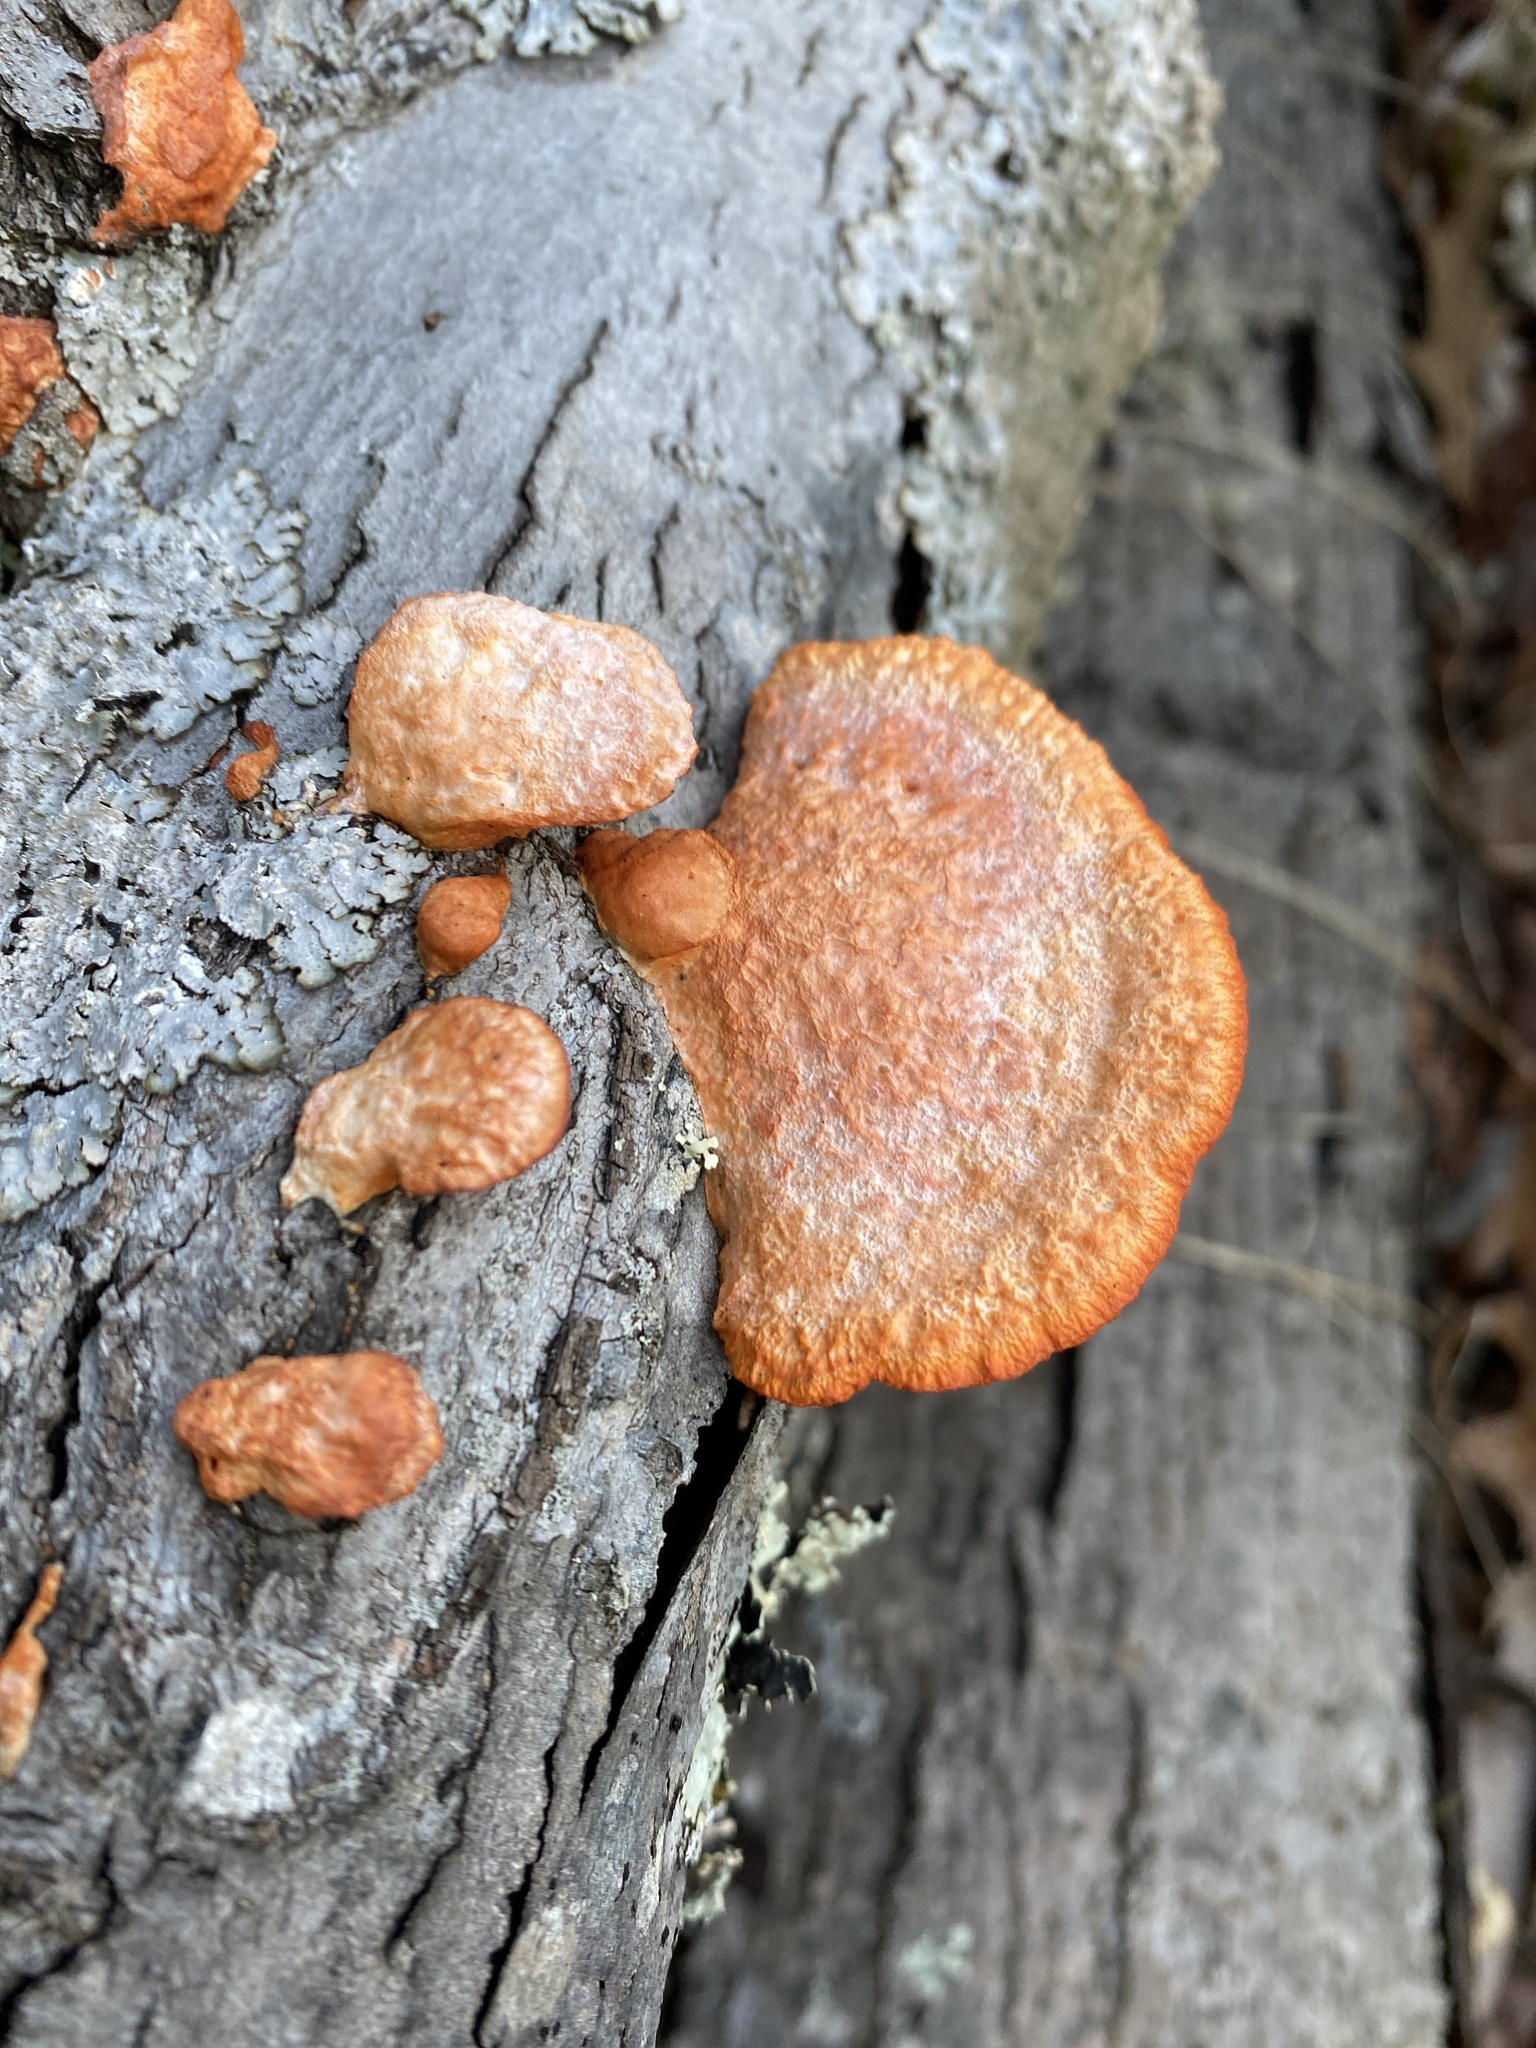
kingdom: Fungi
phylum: Basidiomycota
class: Agaricomycetes
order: Polyporales
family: Polyporaceae
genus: Trametes
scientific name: Trametes cinnabarina
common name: Northern cinnabar polypore
